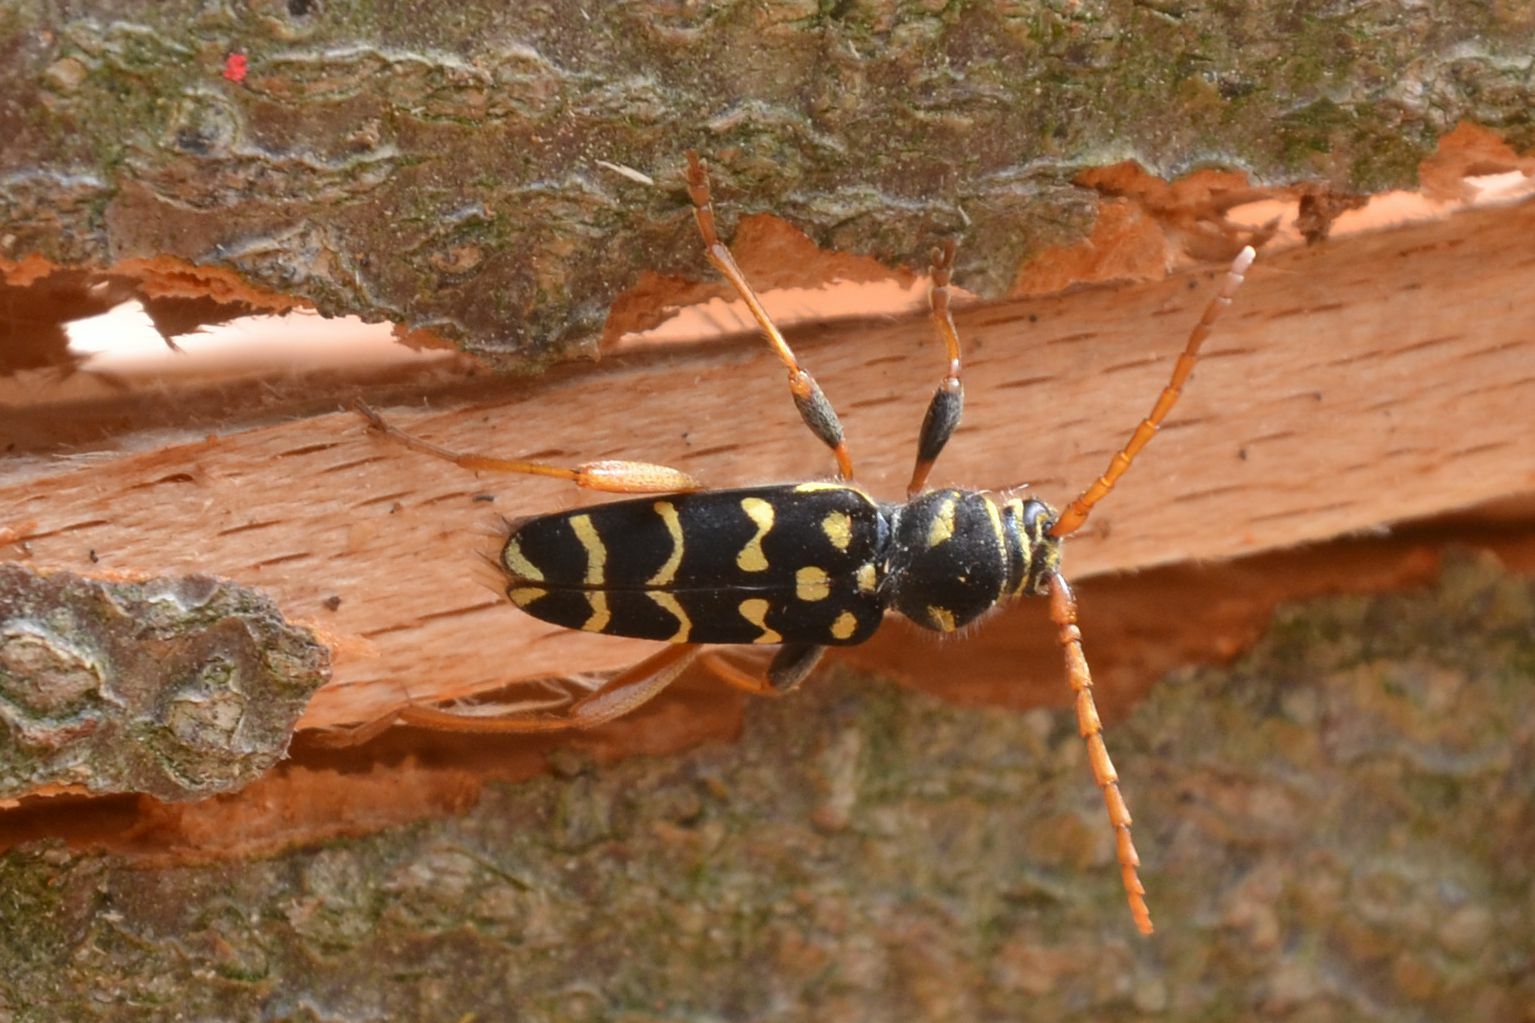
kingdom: Animalia
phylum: Arthropoda
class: Insecta
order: Coleoptera
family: Cerambycidae
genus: Plagionotus
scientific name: Plagionotus arcuatus
